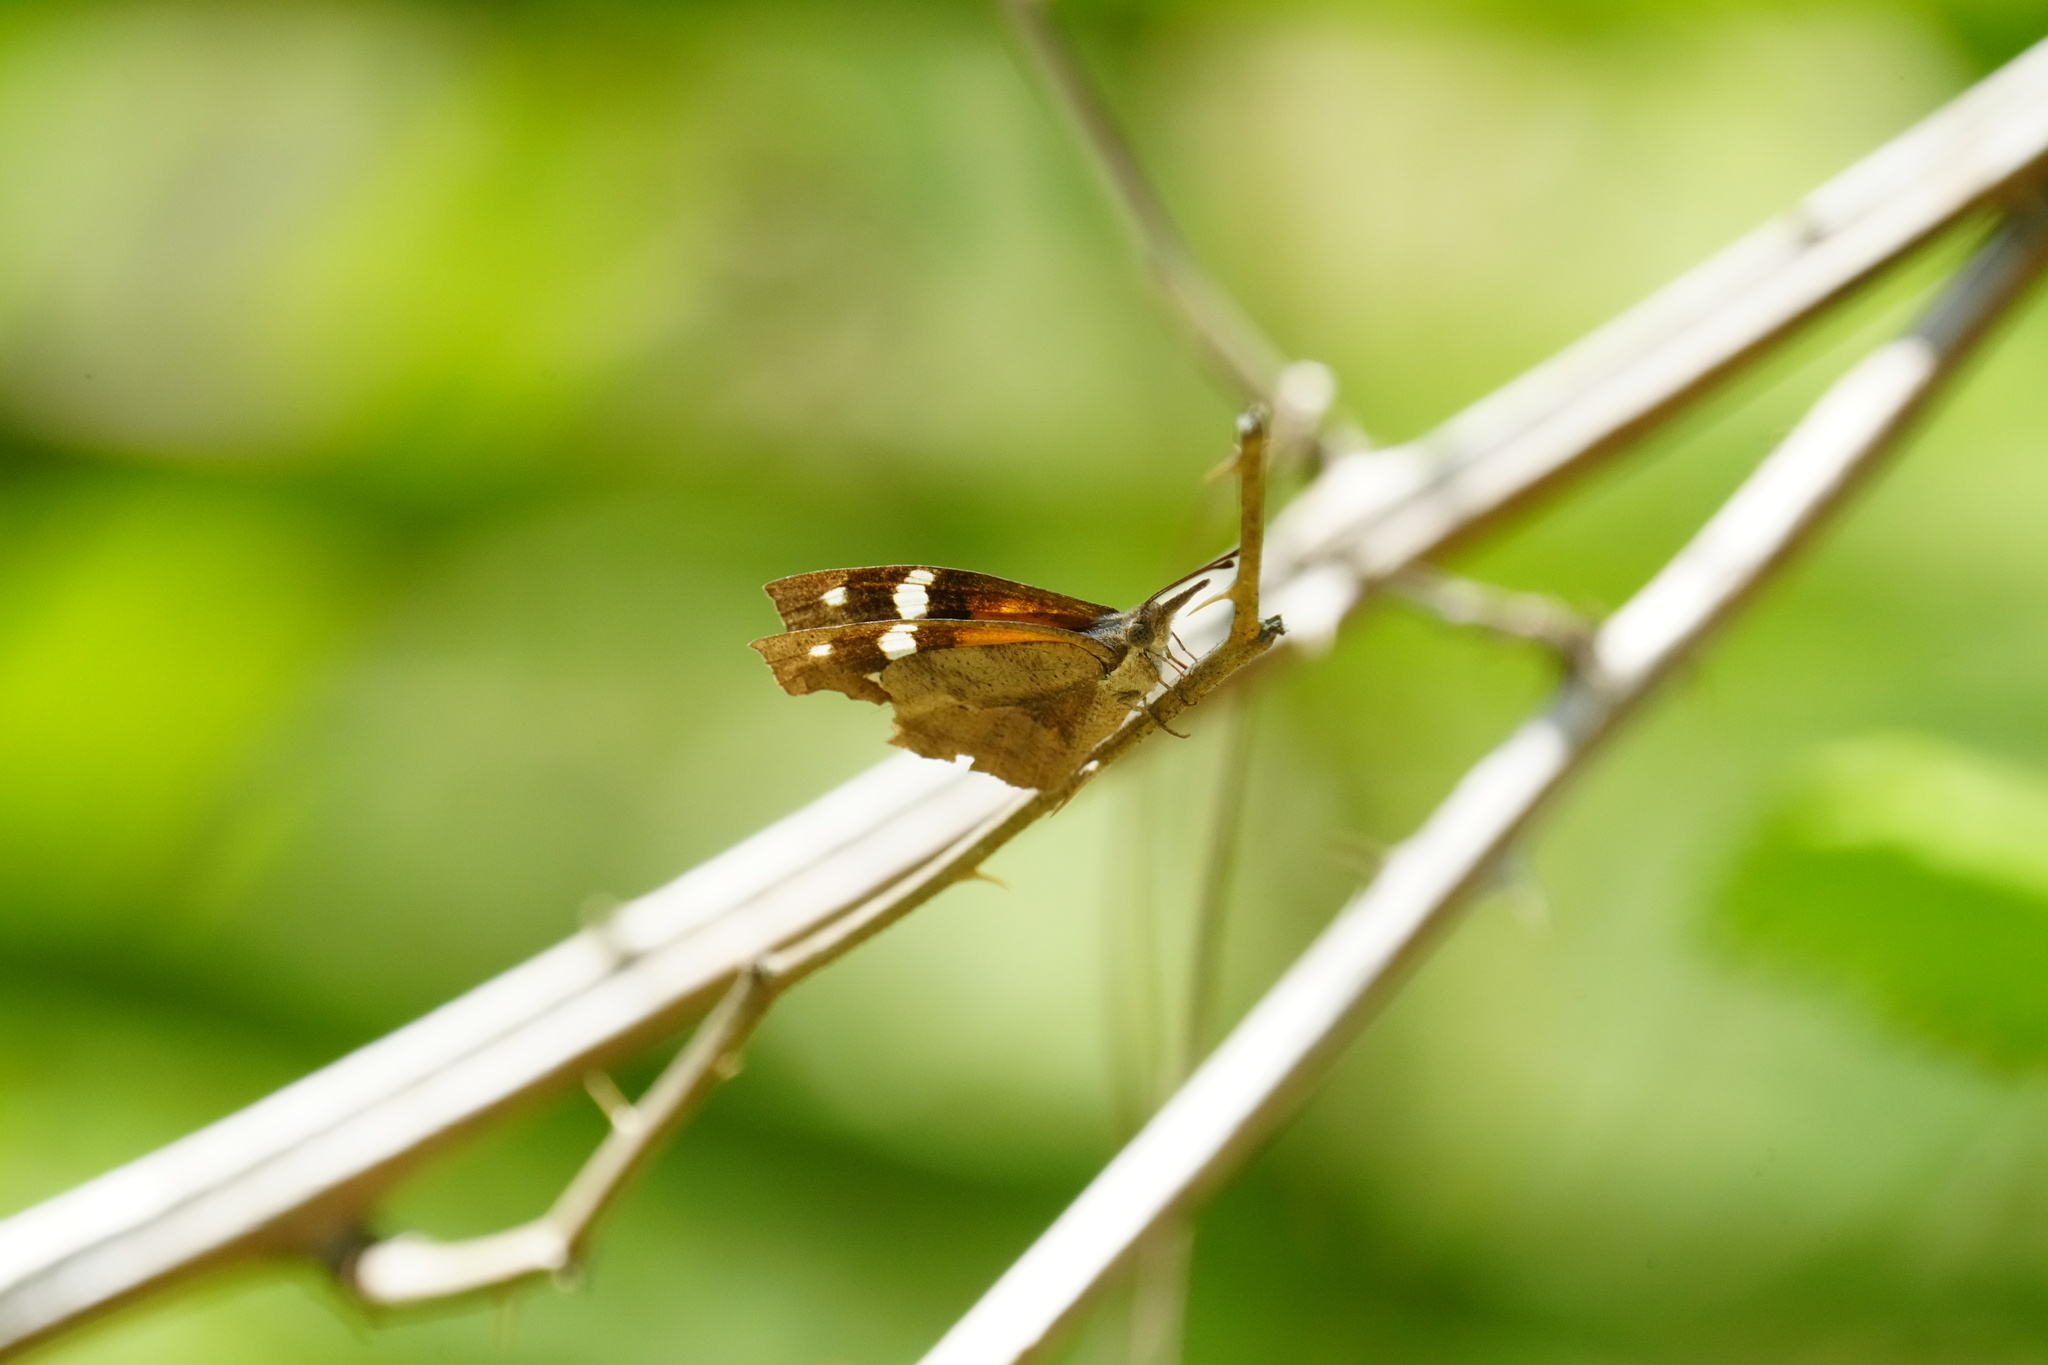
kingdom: Animalia
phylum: Arthropoda
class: Insecta
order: Lepidoptera
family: Nymphalidae
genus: Libytheana
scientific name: Libytheana carinenta
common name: American snout
